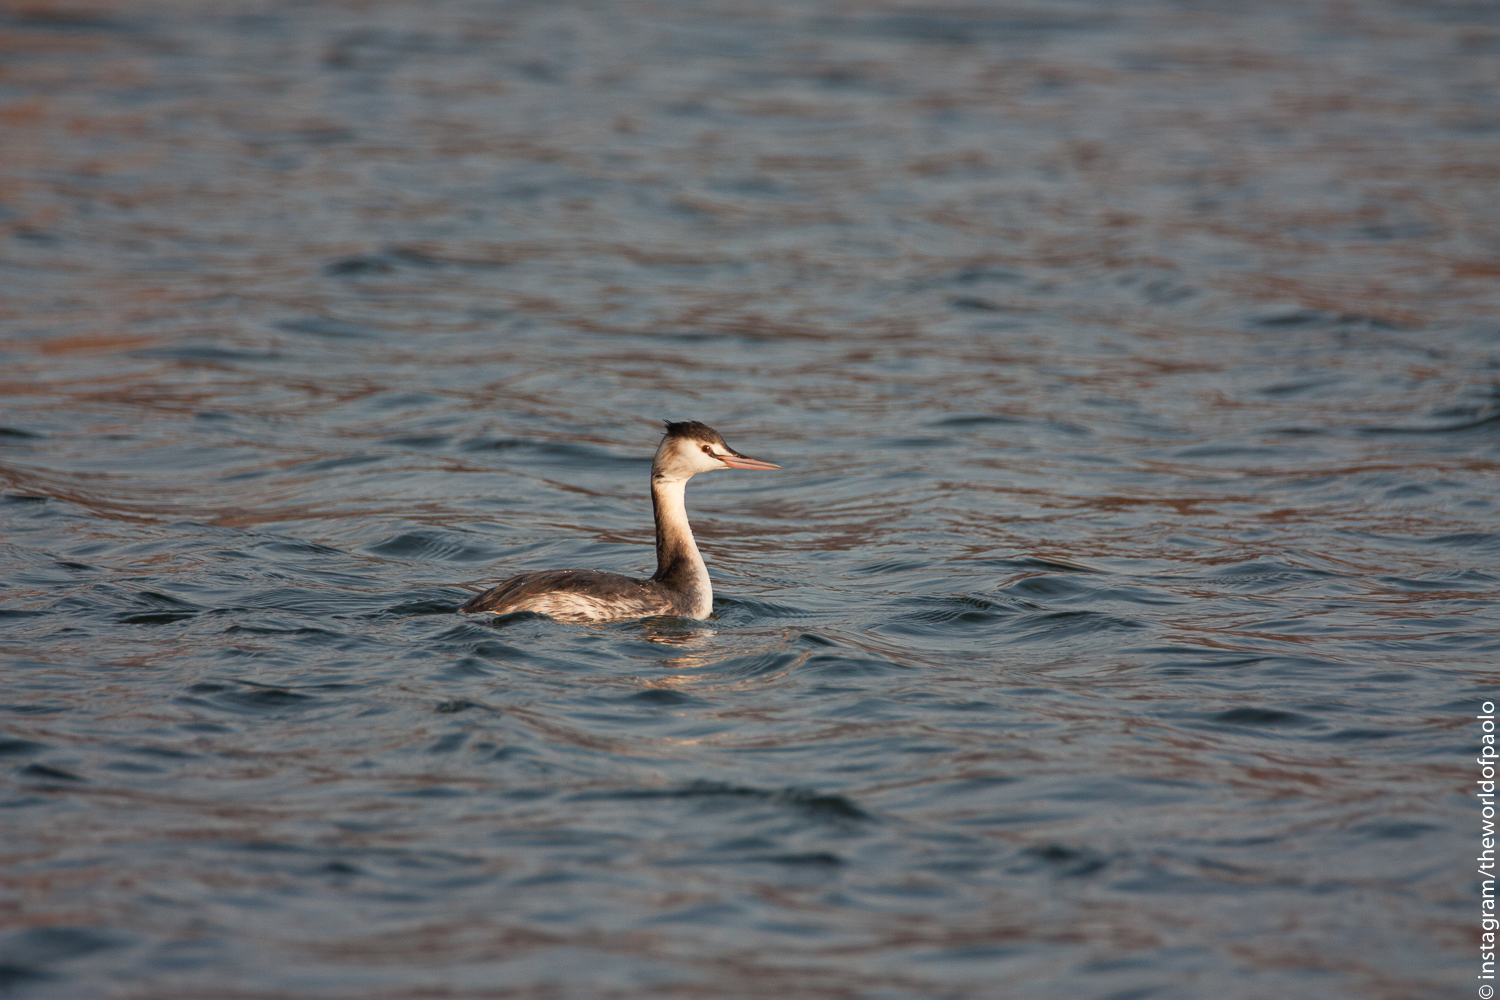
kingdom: Animalia
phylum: Chordata
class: Aves
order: Podicipediformes
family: Podicipedidae
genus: Podiceps
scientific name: Podiceps cristatus
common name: Great crested grebe
